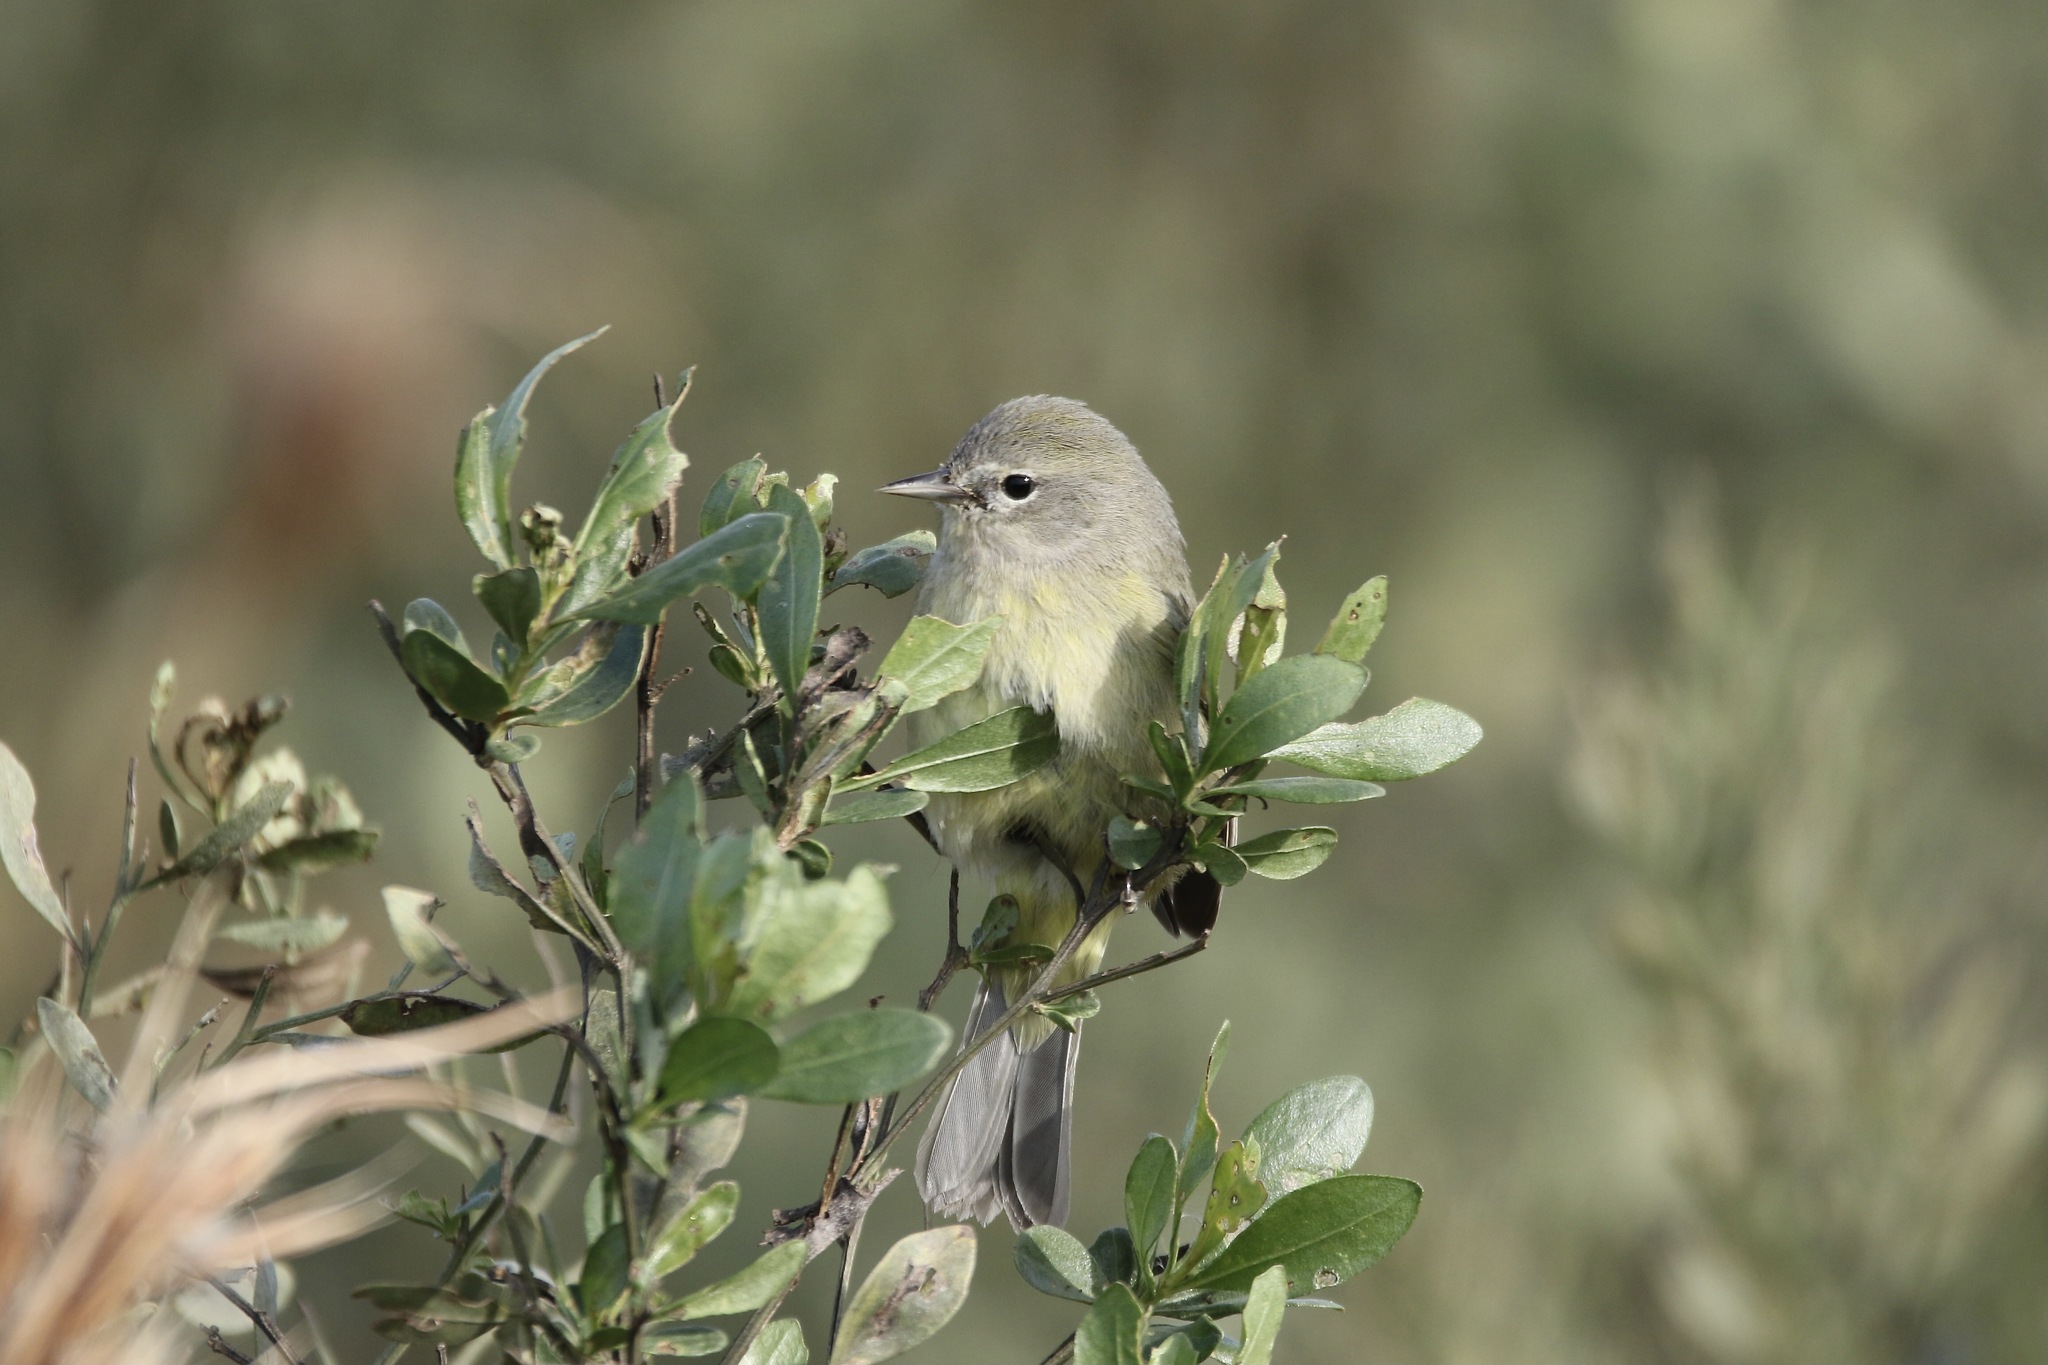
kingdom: Animalia
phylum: Chordata
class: Aves
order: Passeriformes
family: Parulidae
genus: Leiothlypis
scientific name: Leiothlypis celata
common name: Orange-crowned warbler
